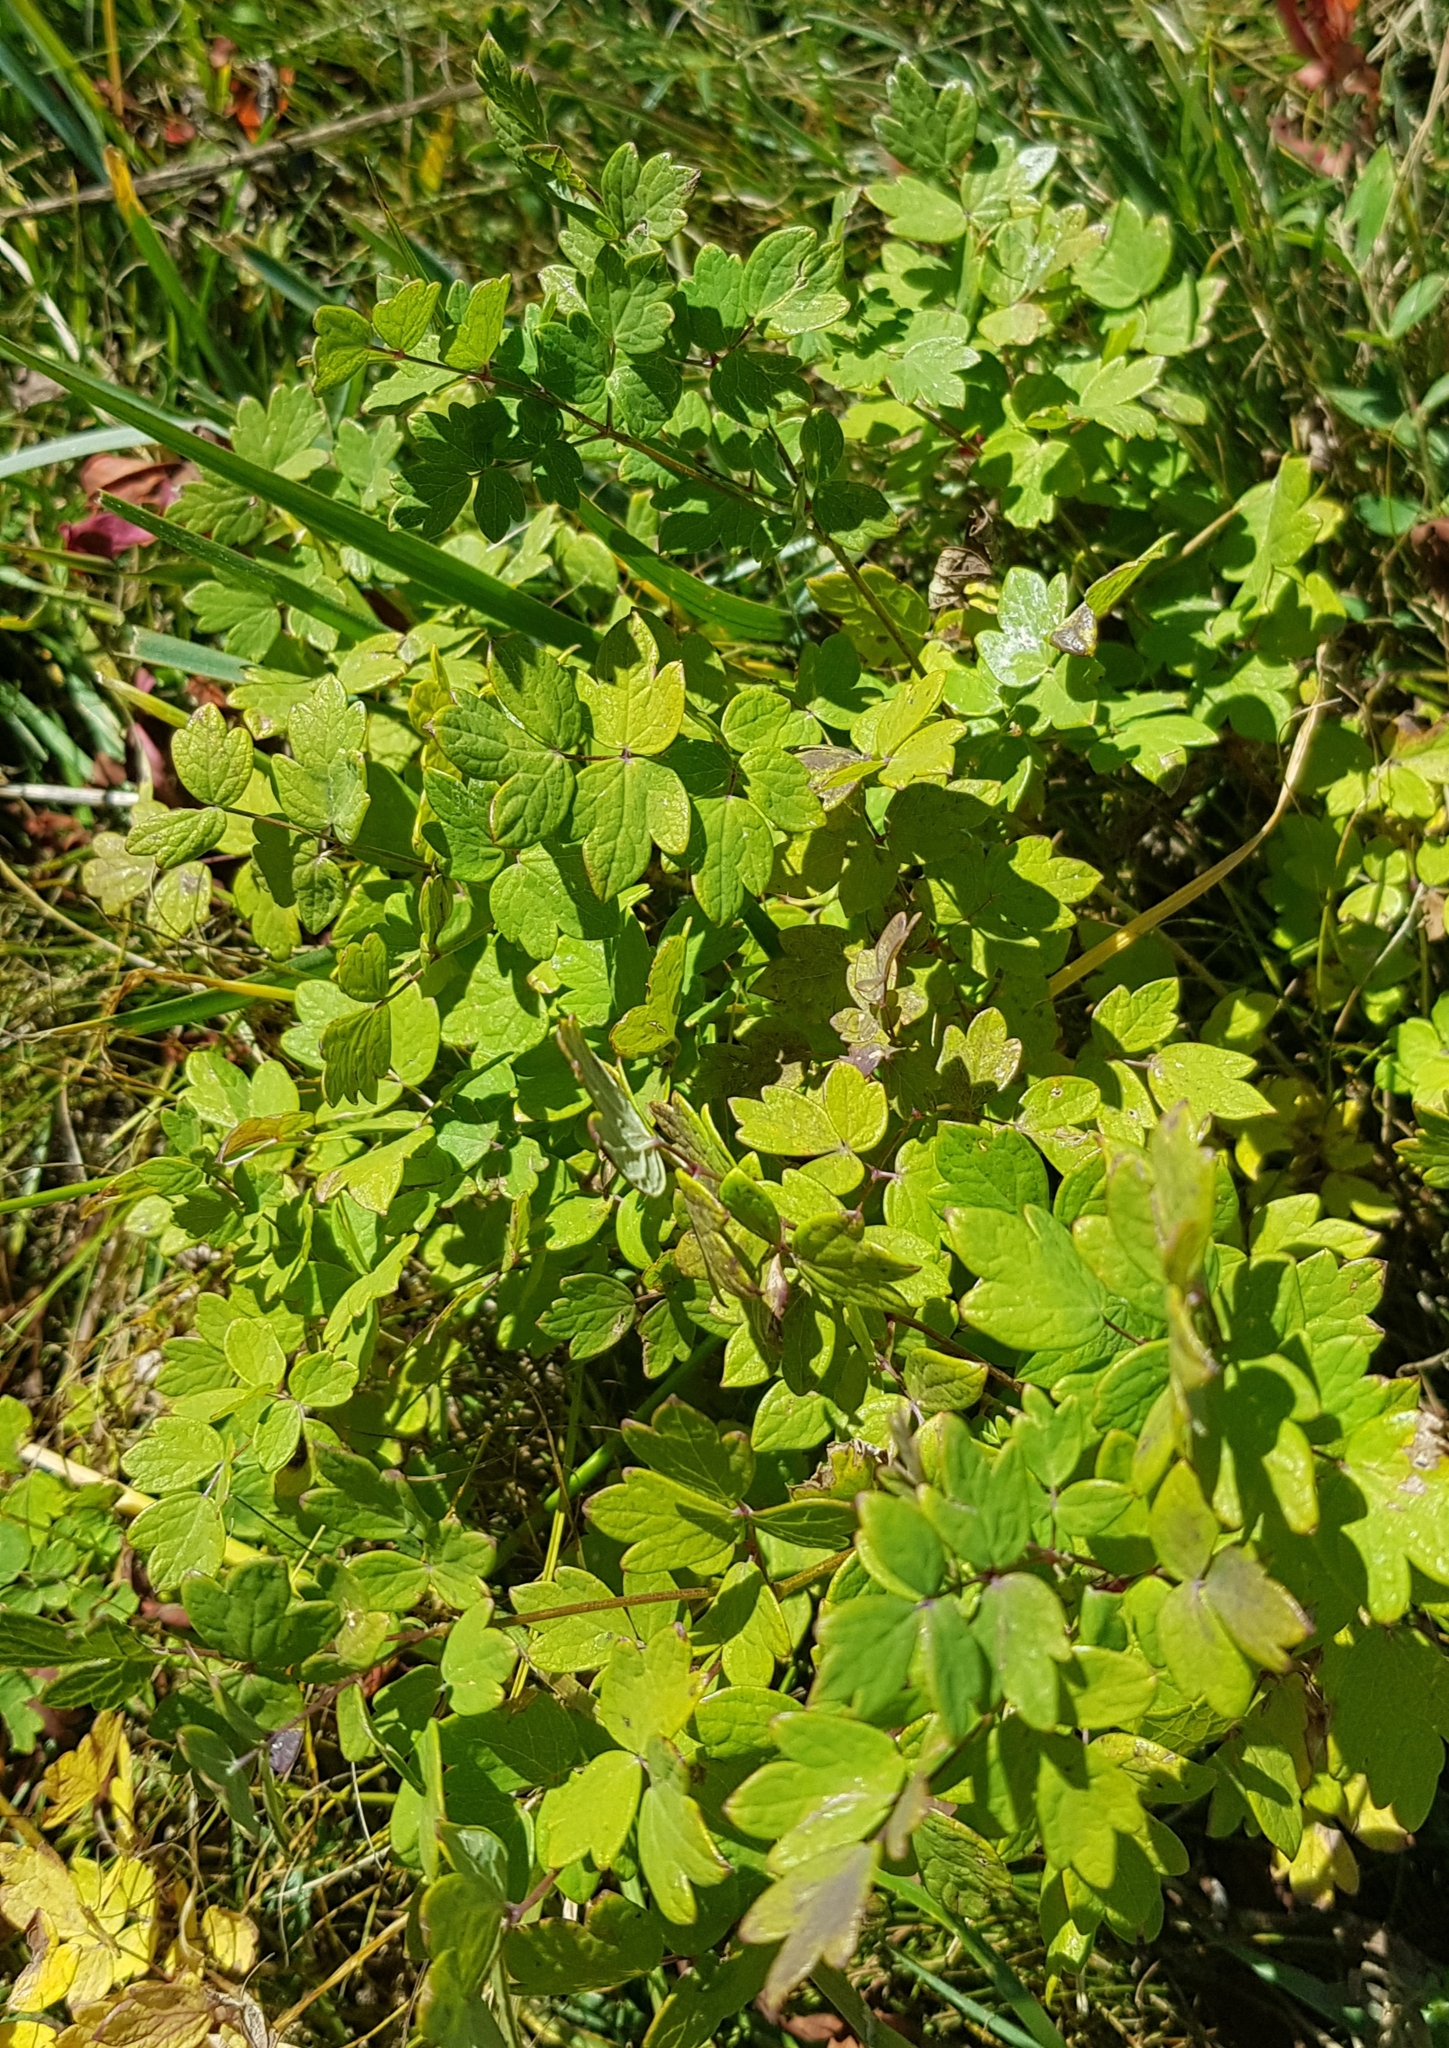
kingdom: Plantae
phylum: Tracheophyta
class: Magnoliopsida
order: Ranunculales
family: Ranunculaceae
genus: Thalictrum
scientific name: Thalictrum foetidum
